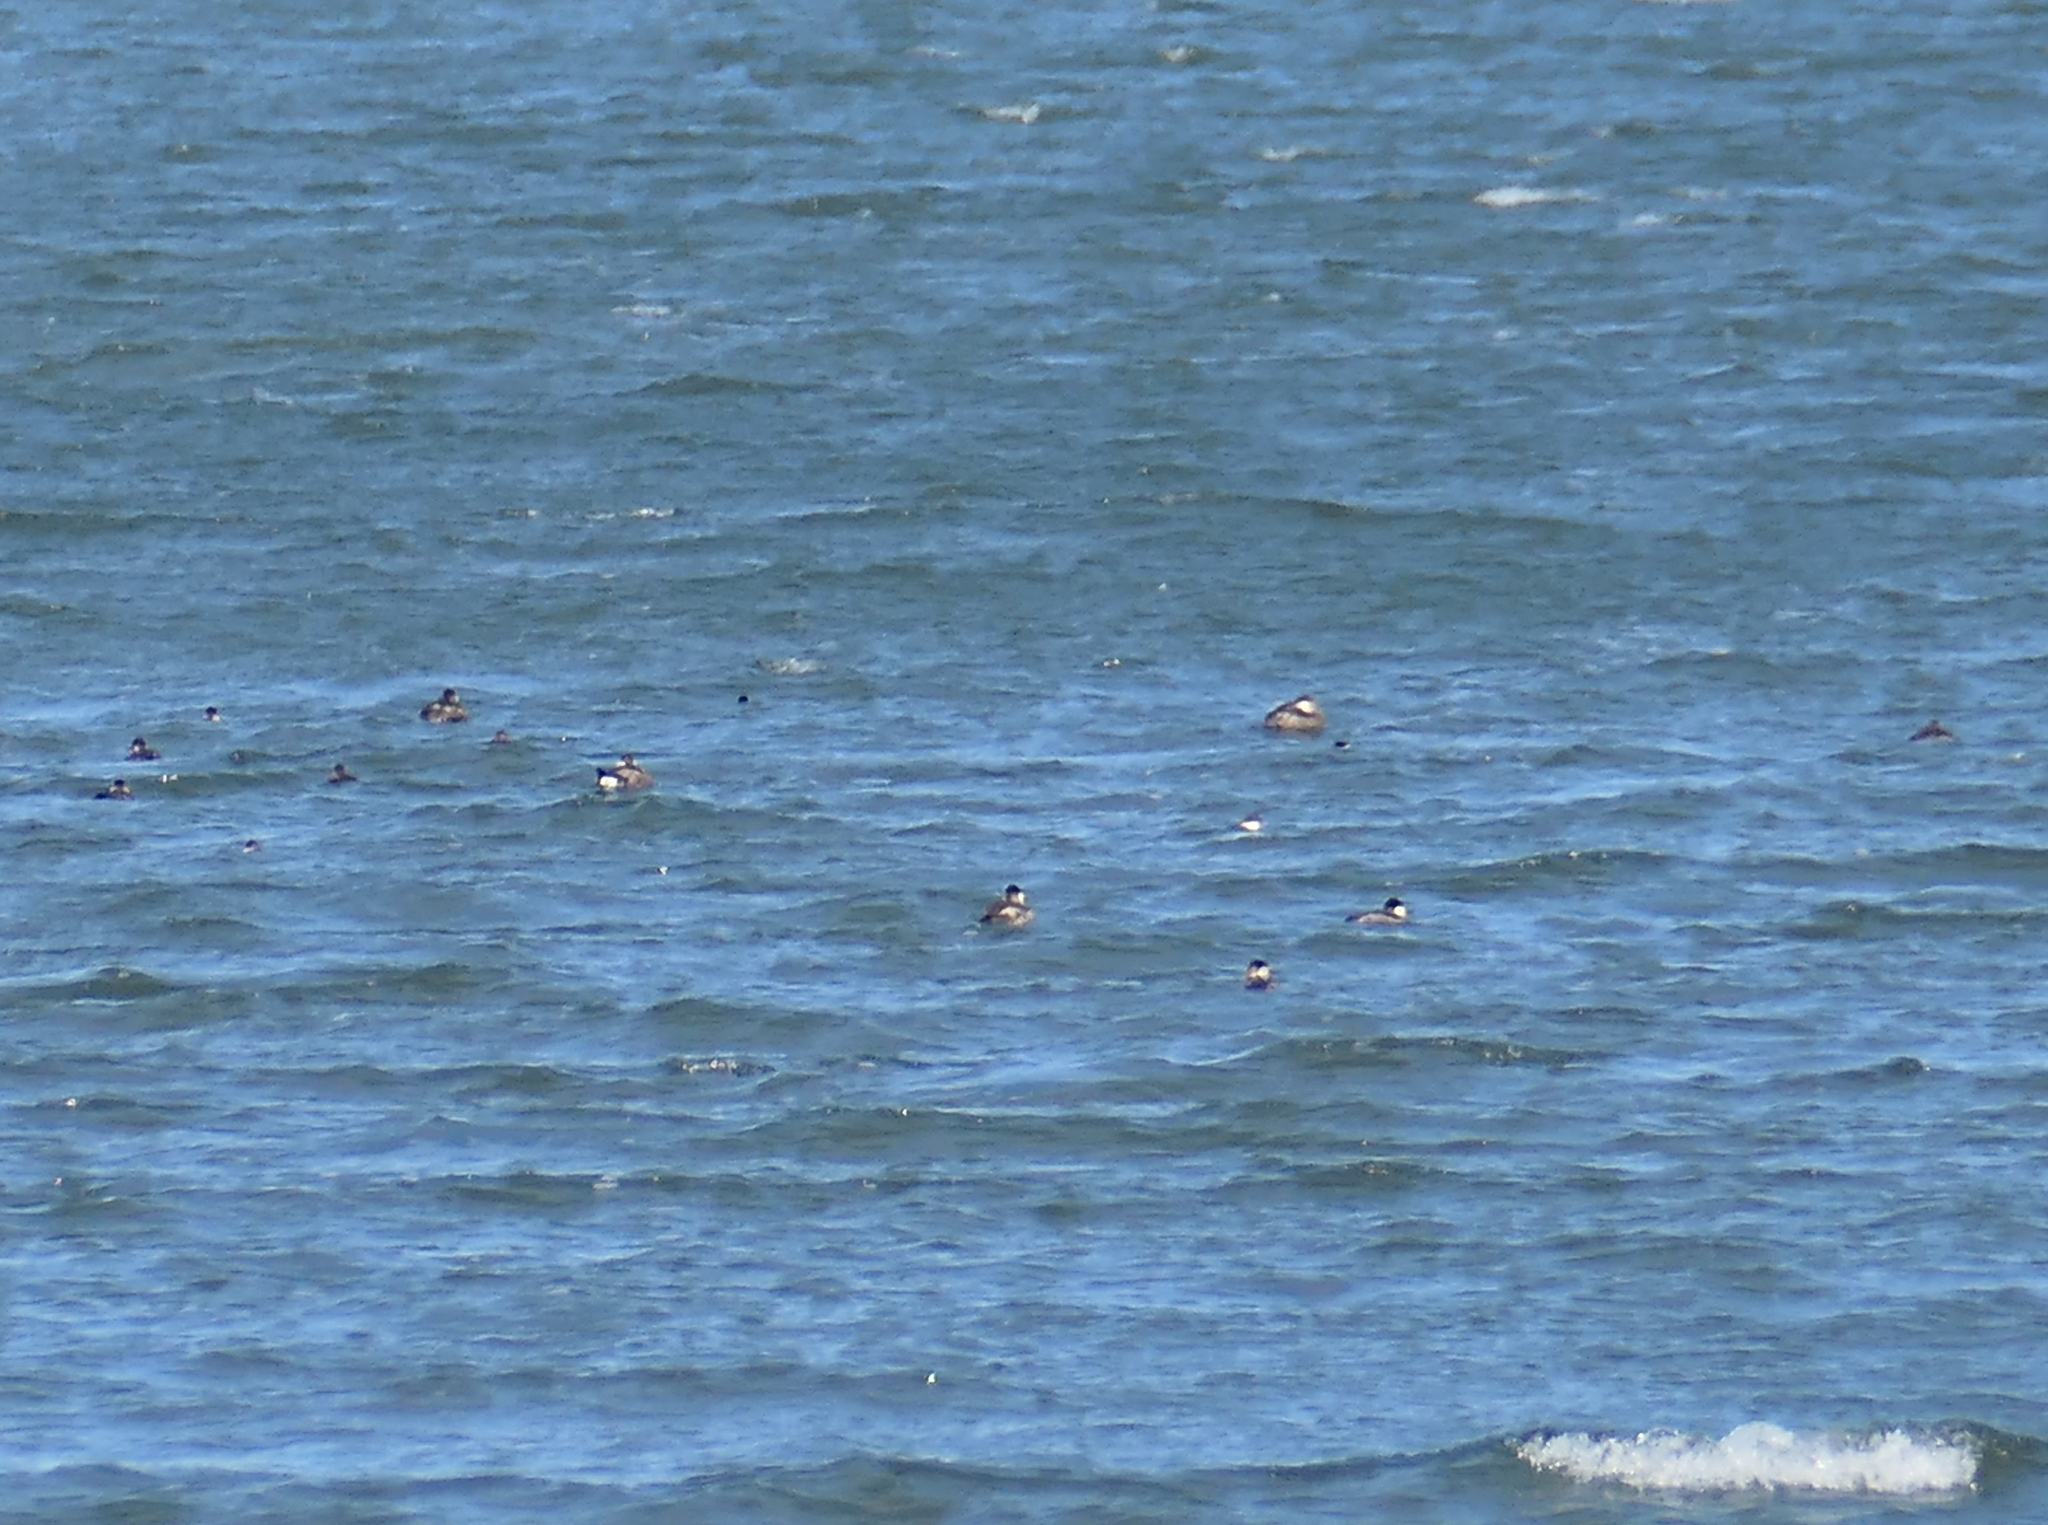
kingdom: Animalia
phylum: Chordata
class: Aves
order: Anseriformes
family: Anatidae
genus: Oxyura
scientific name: Oxyura jamaicensis
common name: Ruddy duck
